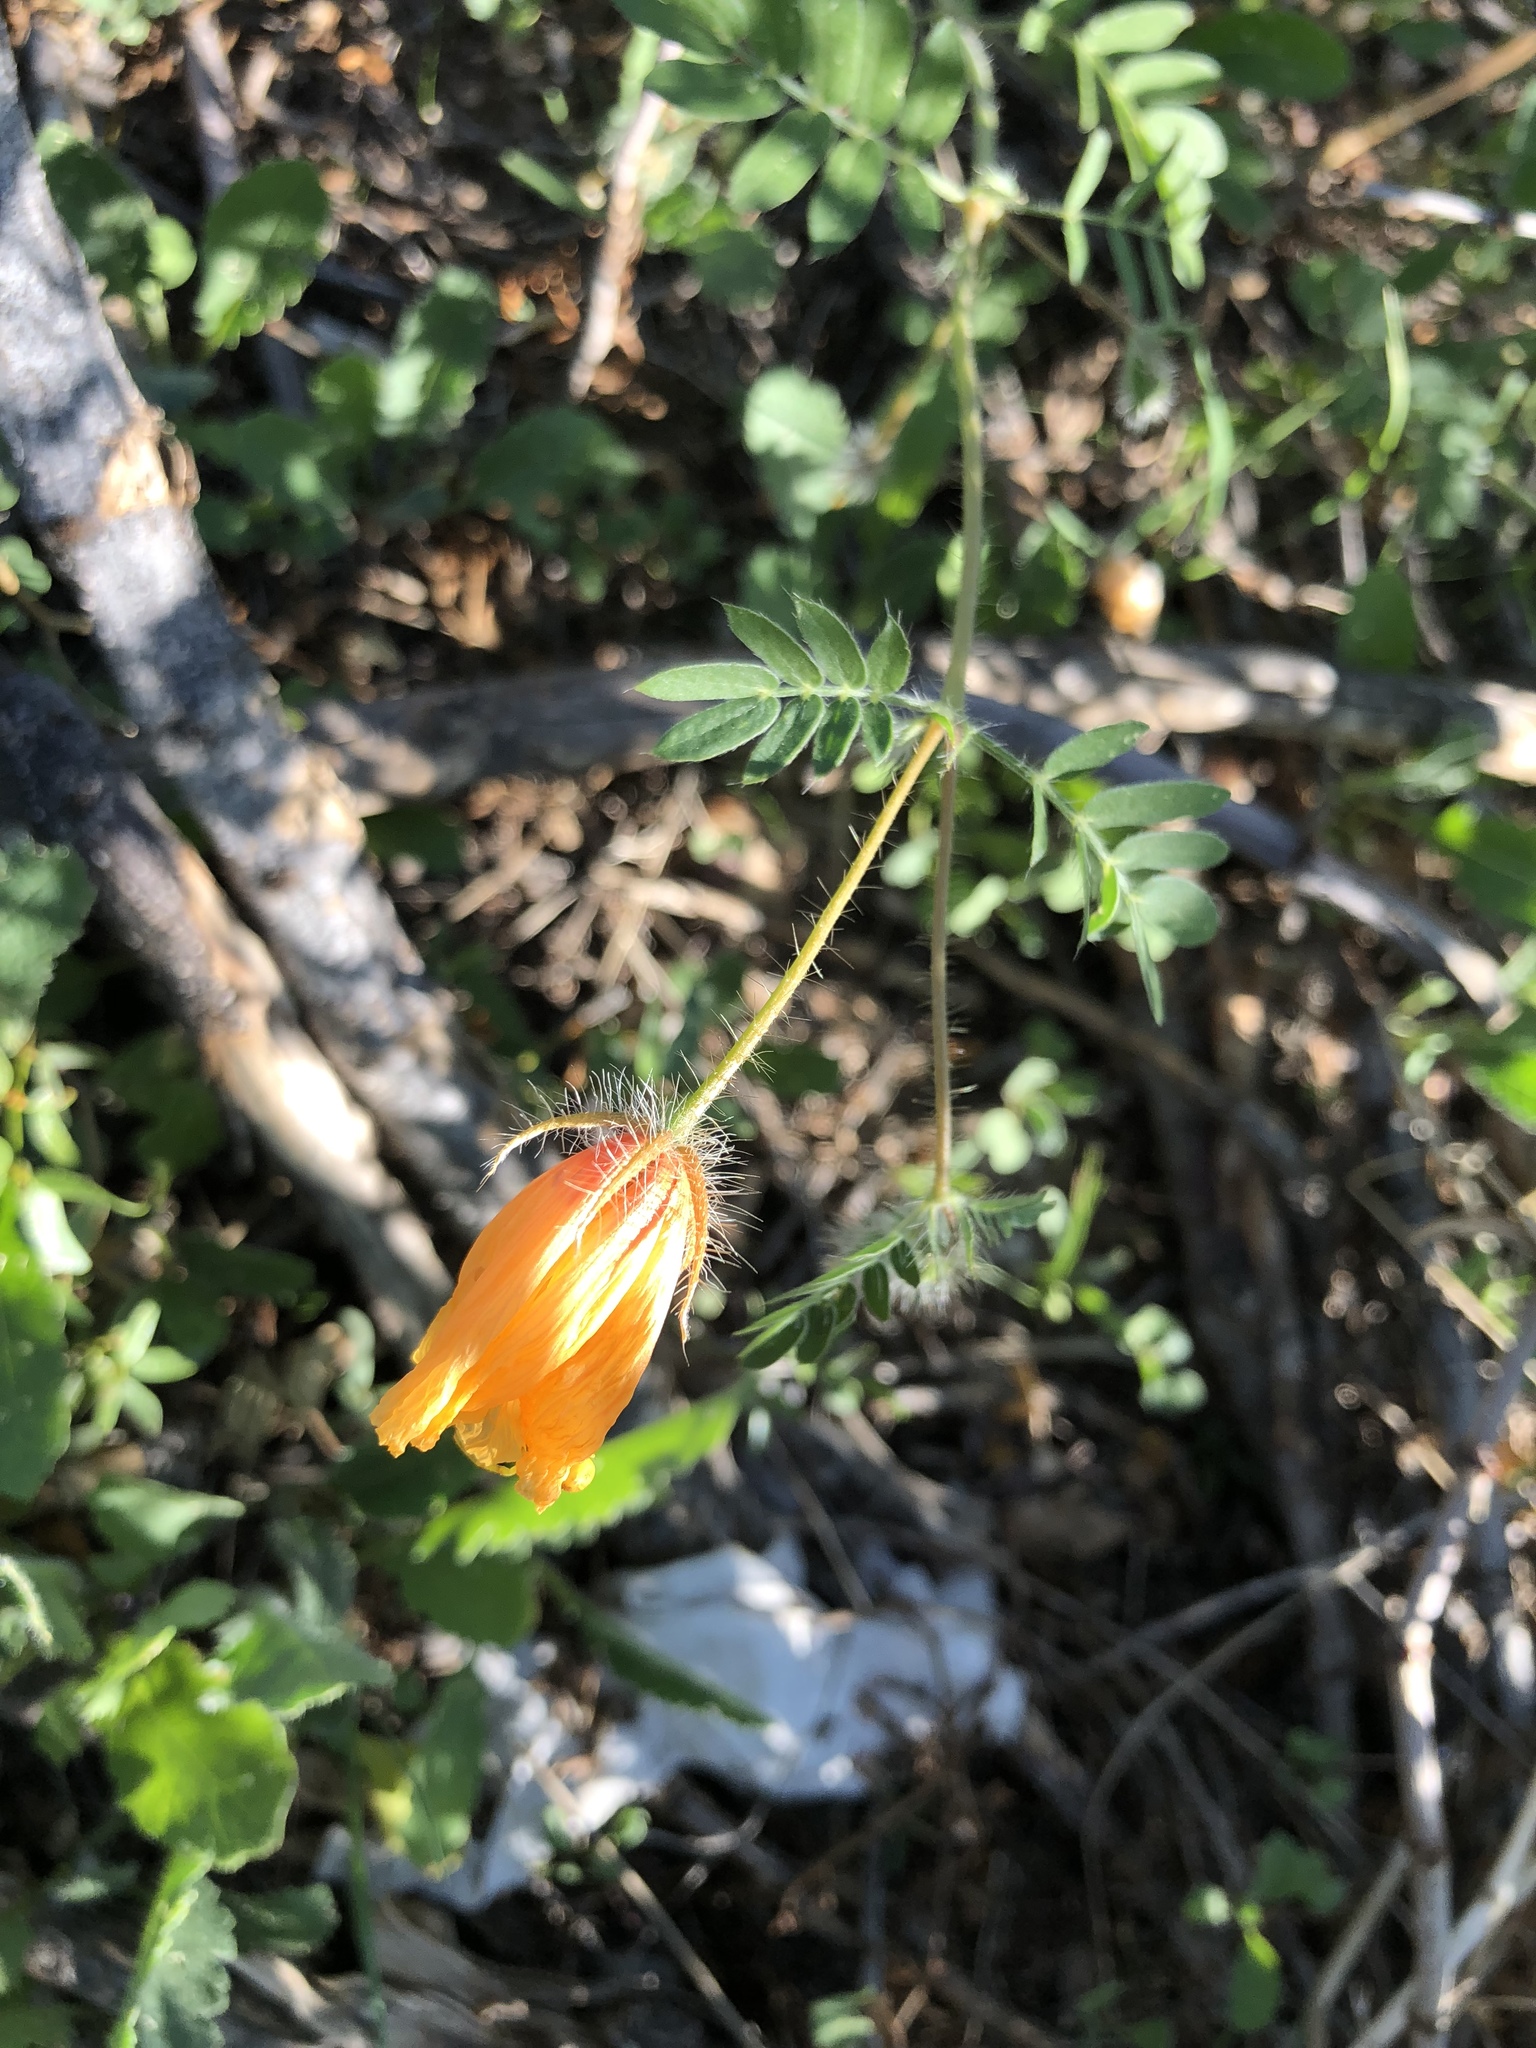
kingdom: Plantae
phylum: Tracheophyta
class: Magnoliopsida
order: Zygophyllales
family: Zygophyllaceae
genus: Kallstroemia
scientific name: Kallstroemia grandiflora
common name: Arizona-poppy
